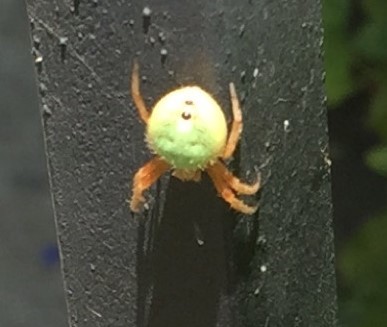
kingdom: Animalia
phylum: Arthropoda
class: Arachnida
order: Araneae
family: Araneidae
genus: Eriophora
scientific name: Eriophora ravilla
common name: Orb weavers
